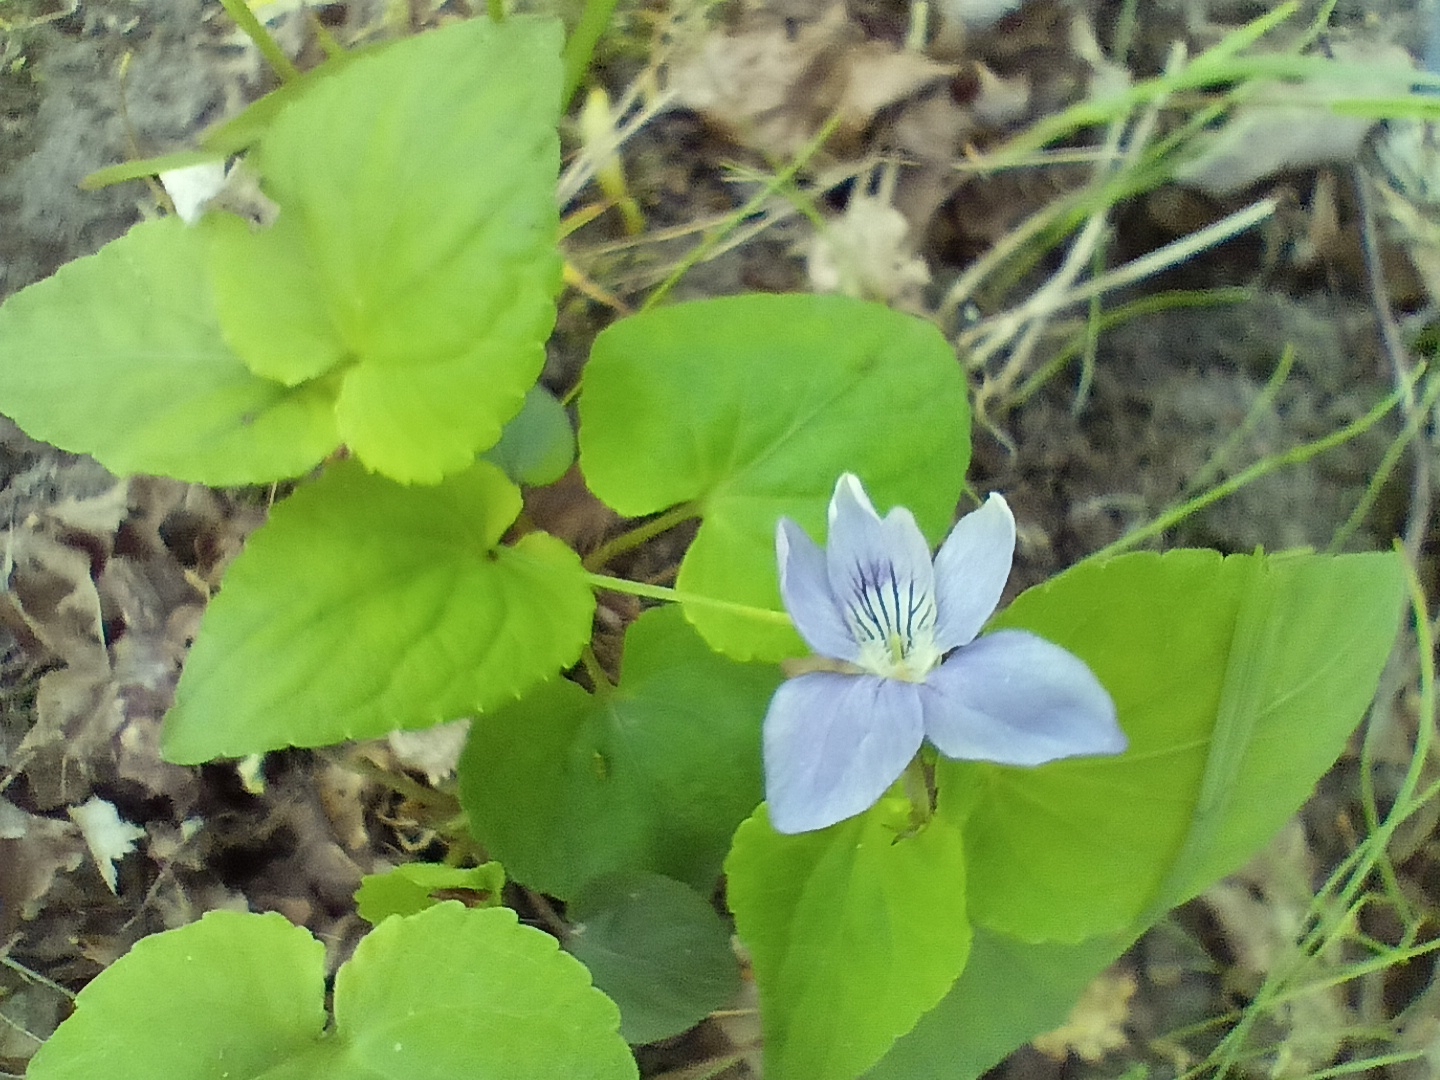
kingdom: Plantae
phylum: Tracheophyta
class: Magnoliopsida
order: Malpighiales
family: Violaceae
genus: Viola
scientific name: Viola reichenbachiana
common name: Early dog-violet
